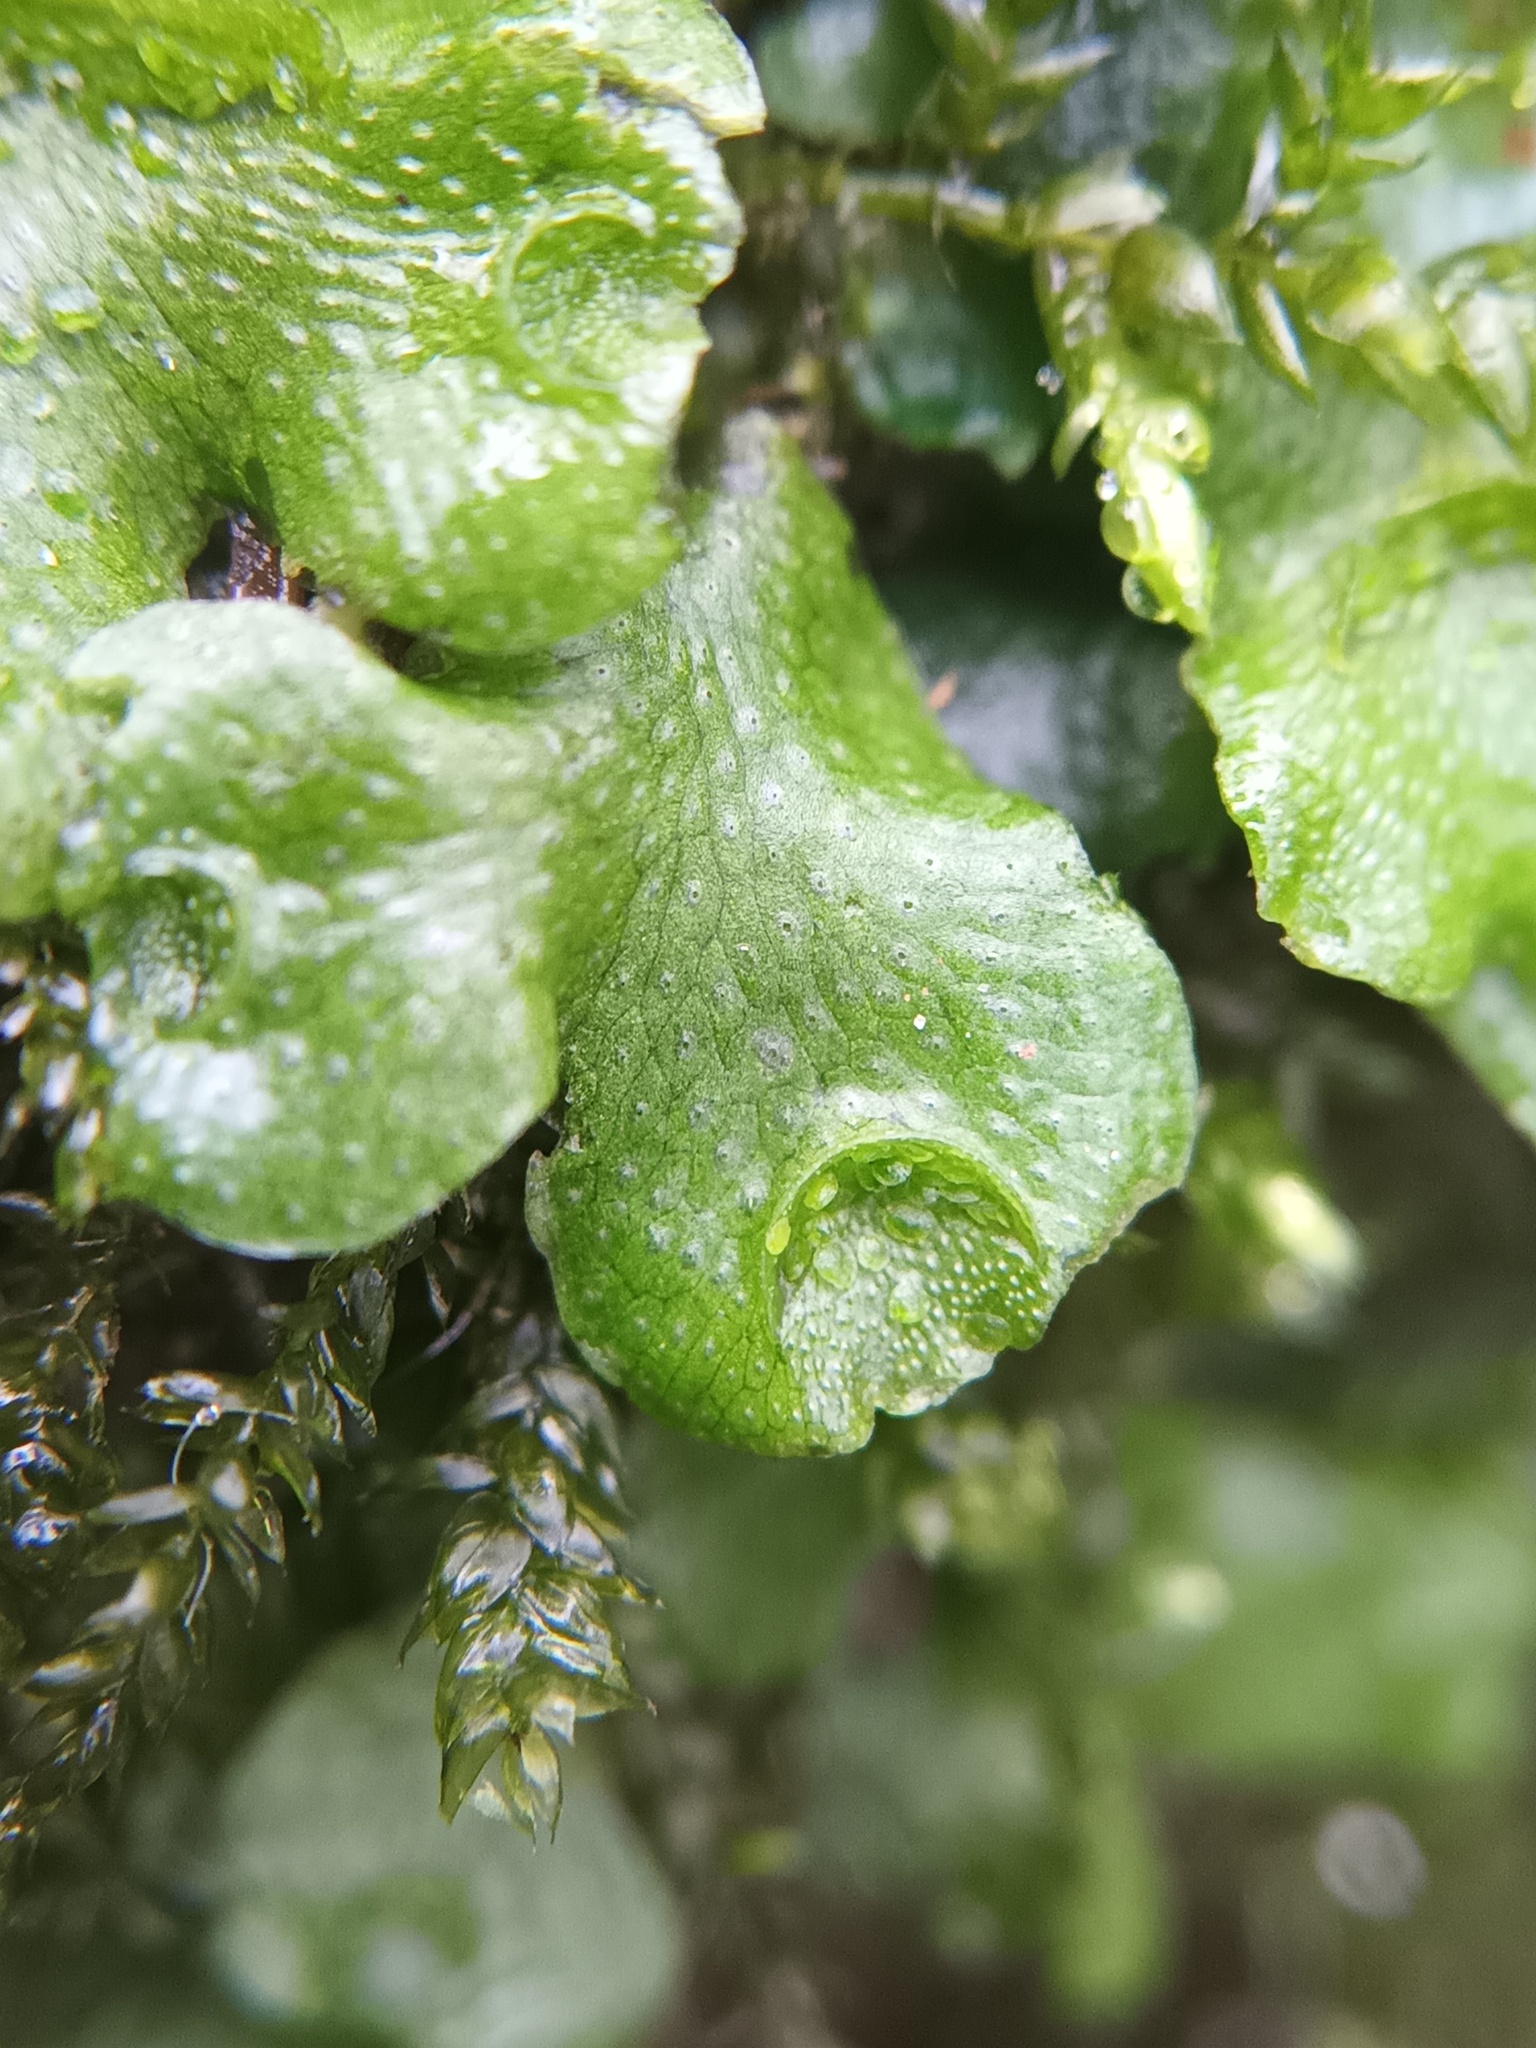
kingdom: Plantae
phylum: Marchantiophyta
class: Marchantiopsida
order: Lunulariales
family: Lunulariaceae
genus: Lunularia
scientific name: Lunularia cruciata
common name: Crescent-cup liverwort
